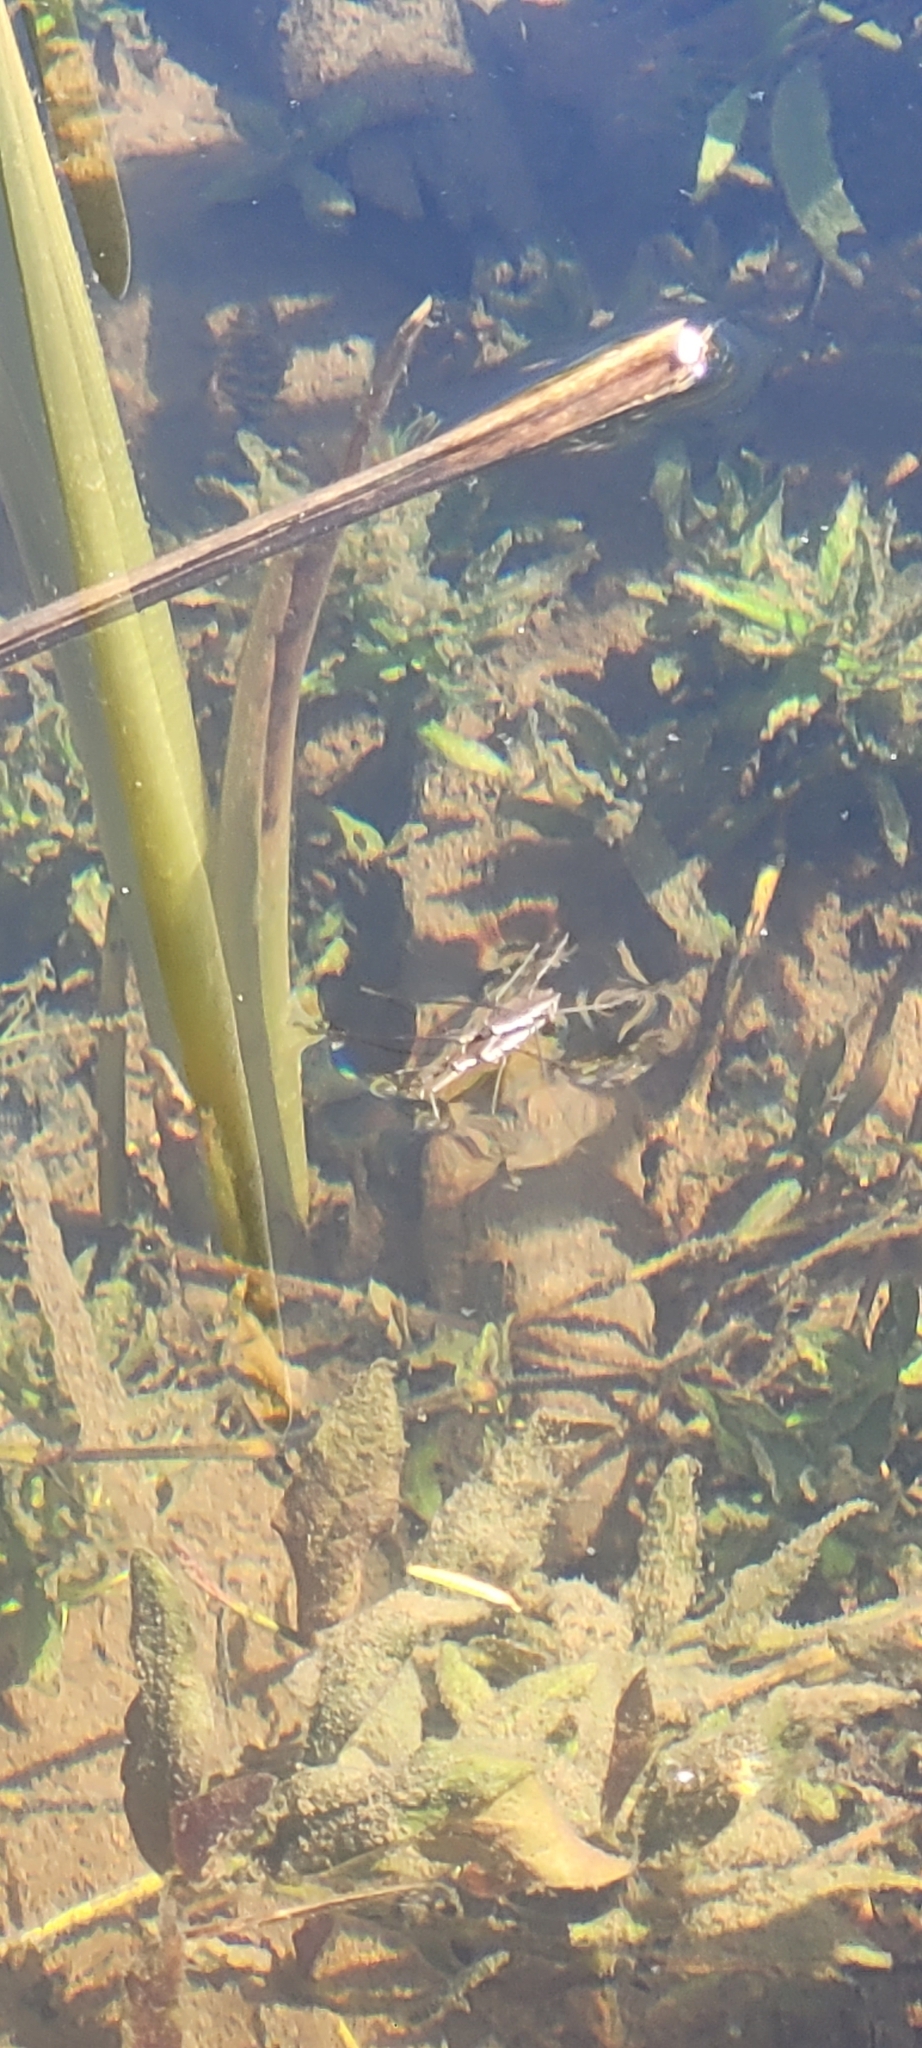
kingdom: Animalia
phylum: Arthropoda
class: Insecta
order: Hemiptera
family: Gerridae
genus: Aquarius
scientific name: Aquarius remigis
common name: Common water strider
